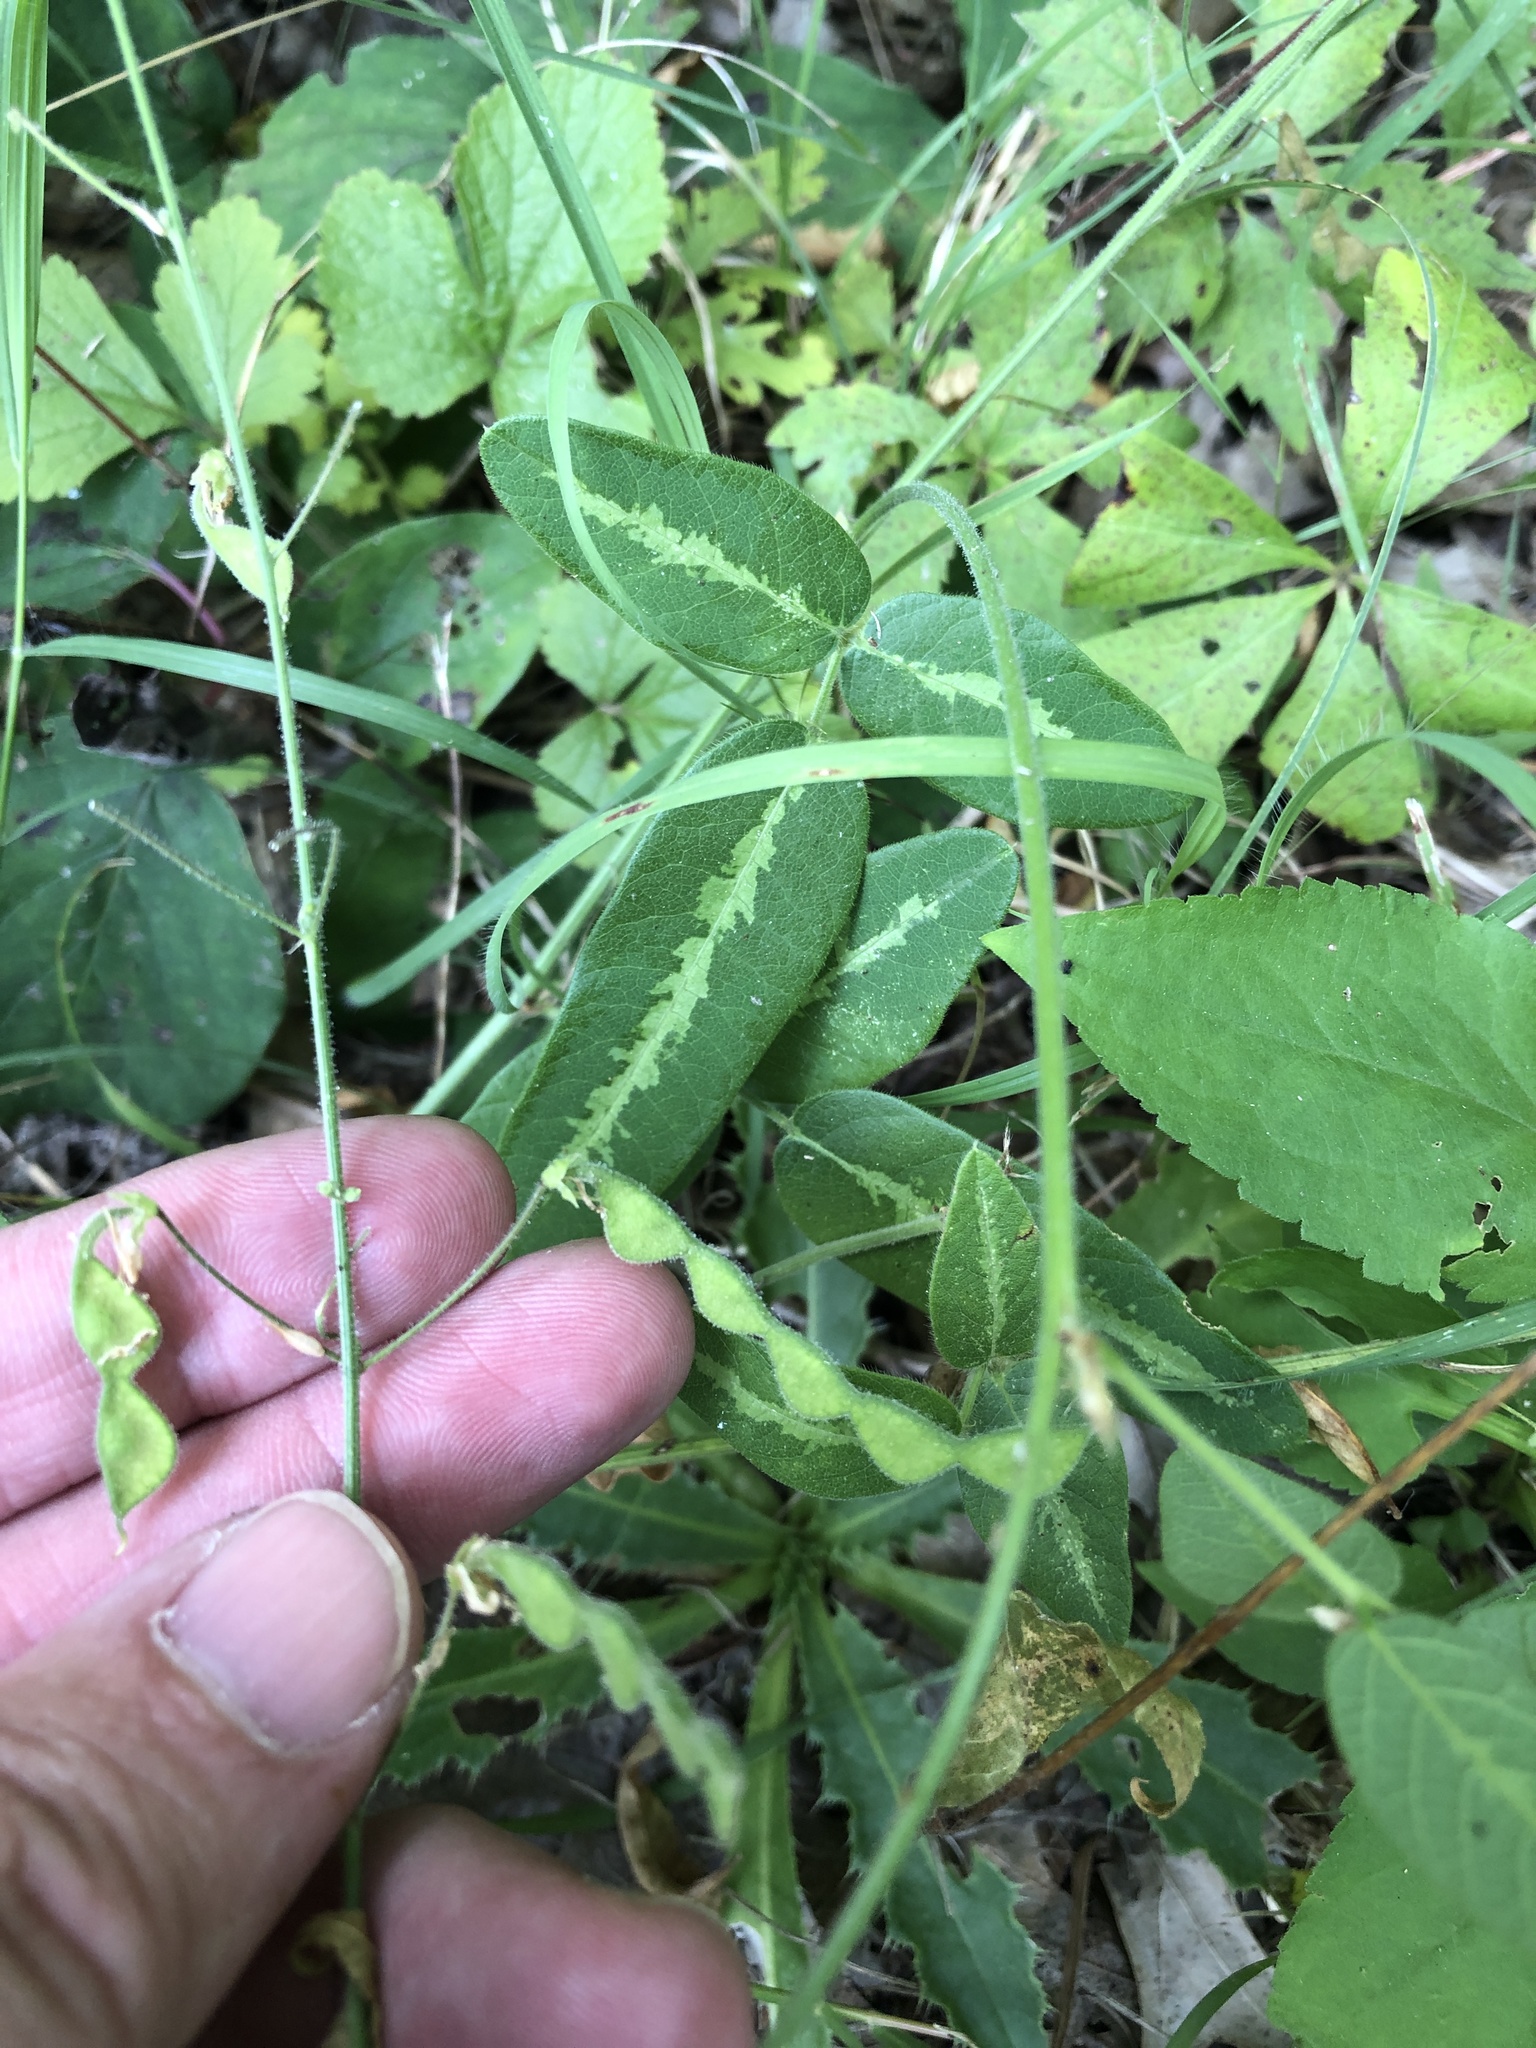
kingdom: Plantae
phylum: Tracheophyta
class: Magnoliopsida
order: Fabales
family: Fabaceae
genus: Desmodium
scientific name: Desmodium tweedyi
